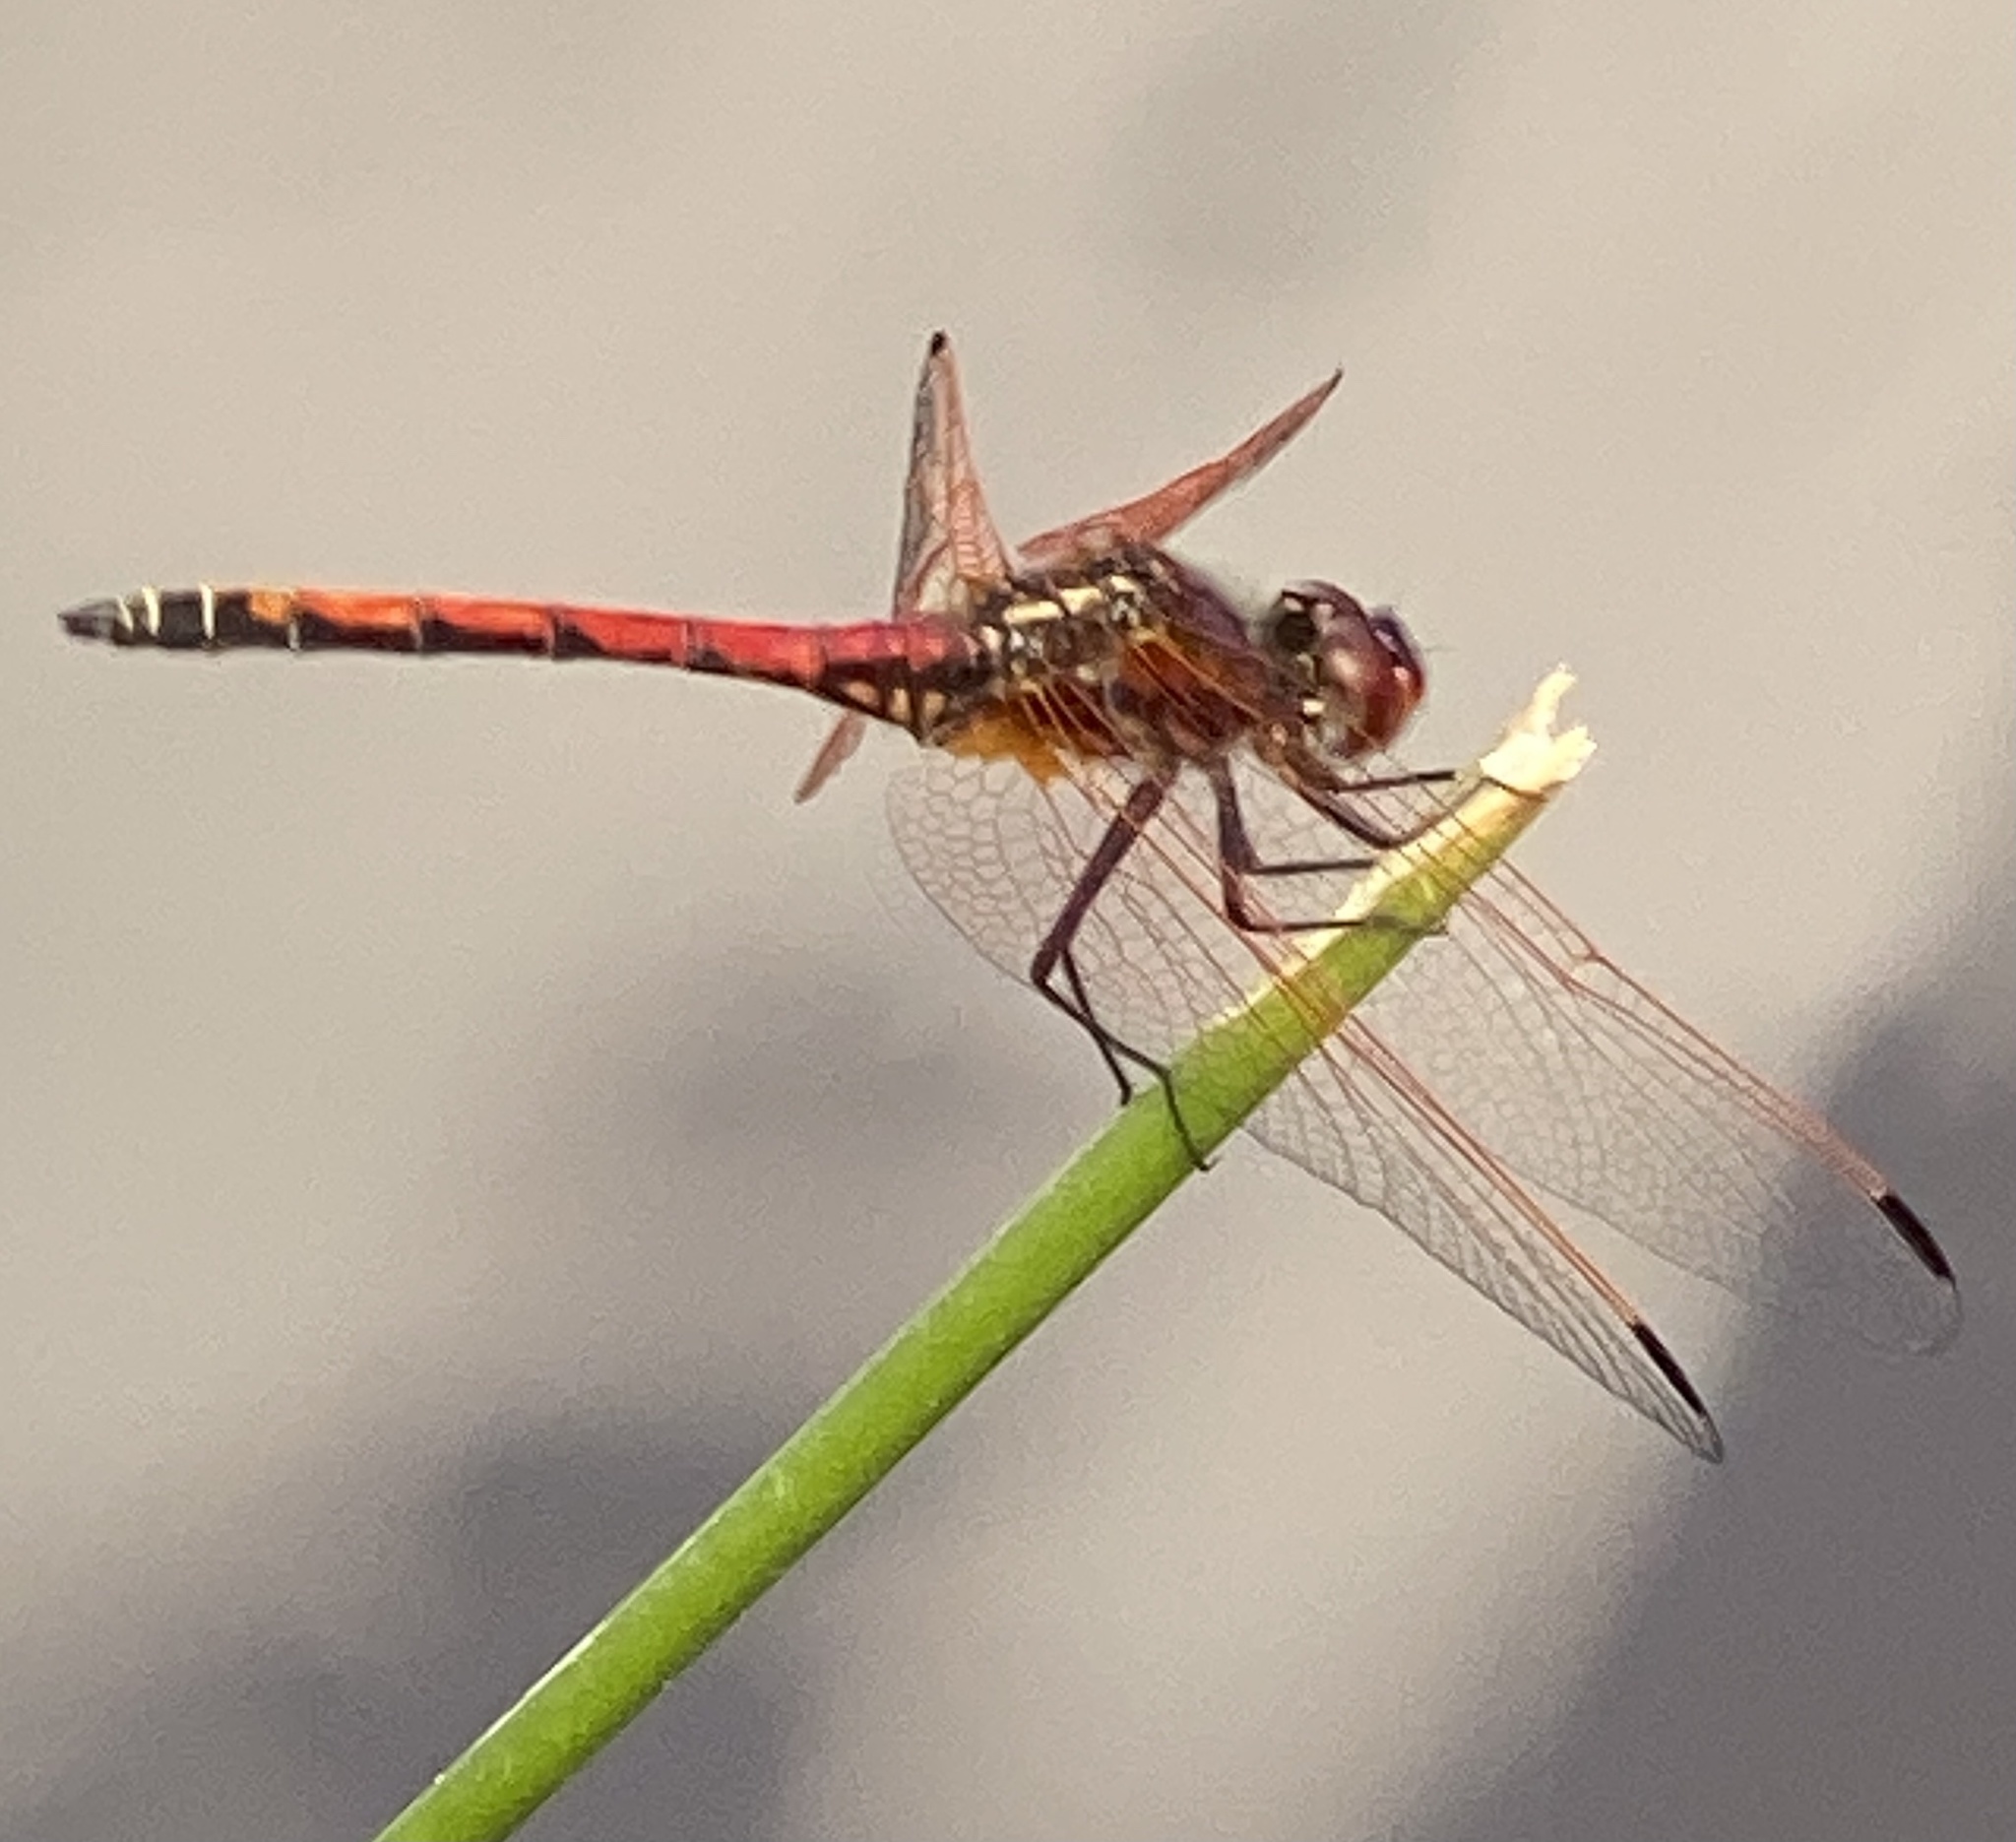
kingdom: Animalia
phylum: Arthropoda
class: Insecta
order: Odonata
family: Libellulidae
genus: Trithemis
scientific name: Trithemis arteriosa
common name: Red-veined dropwing
